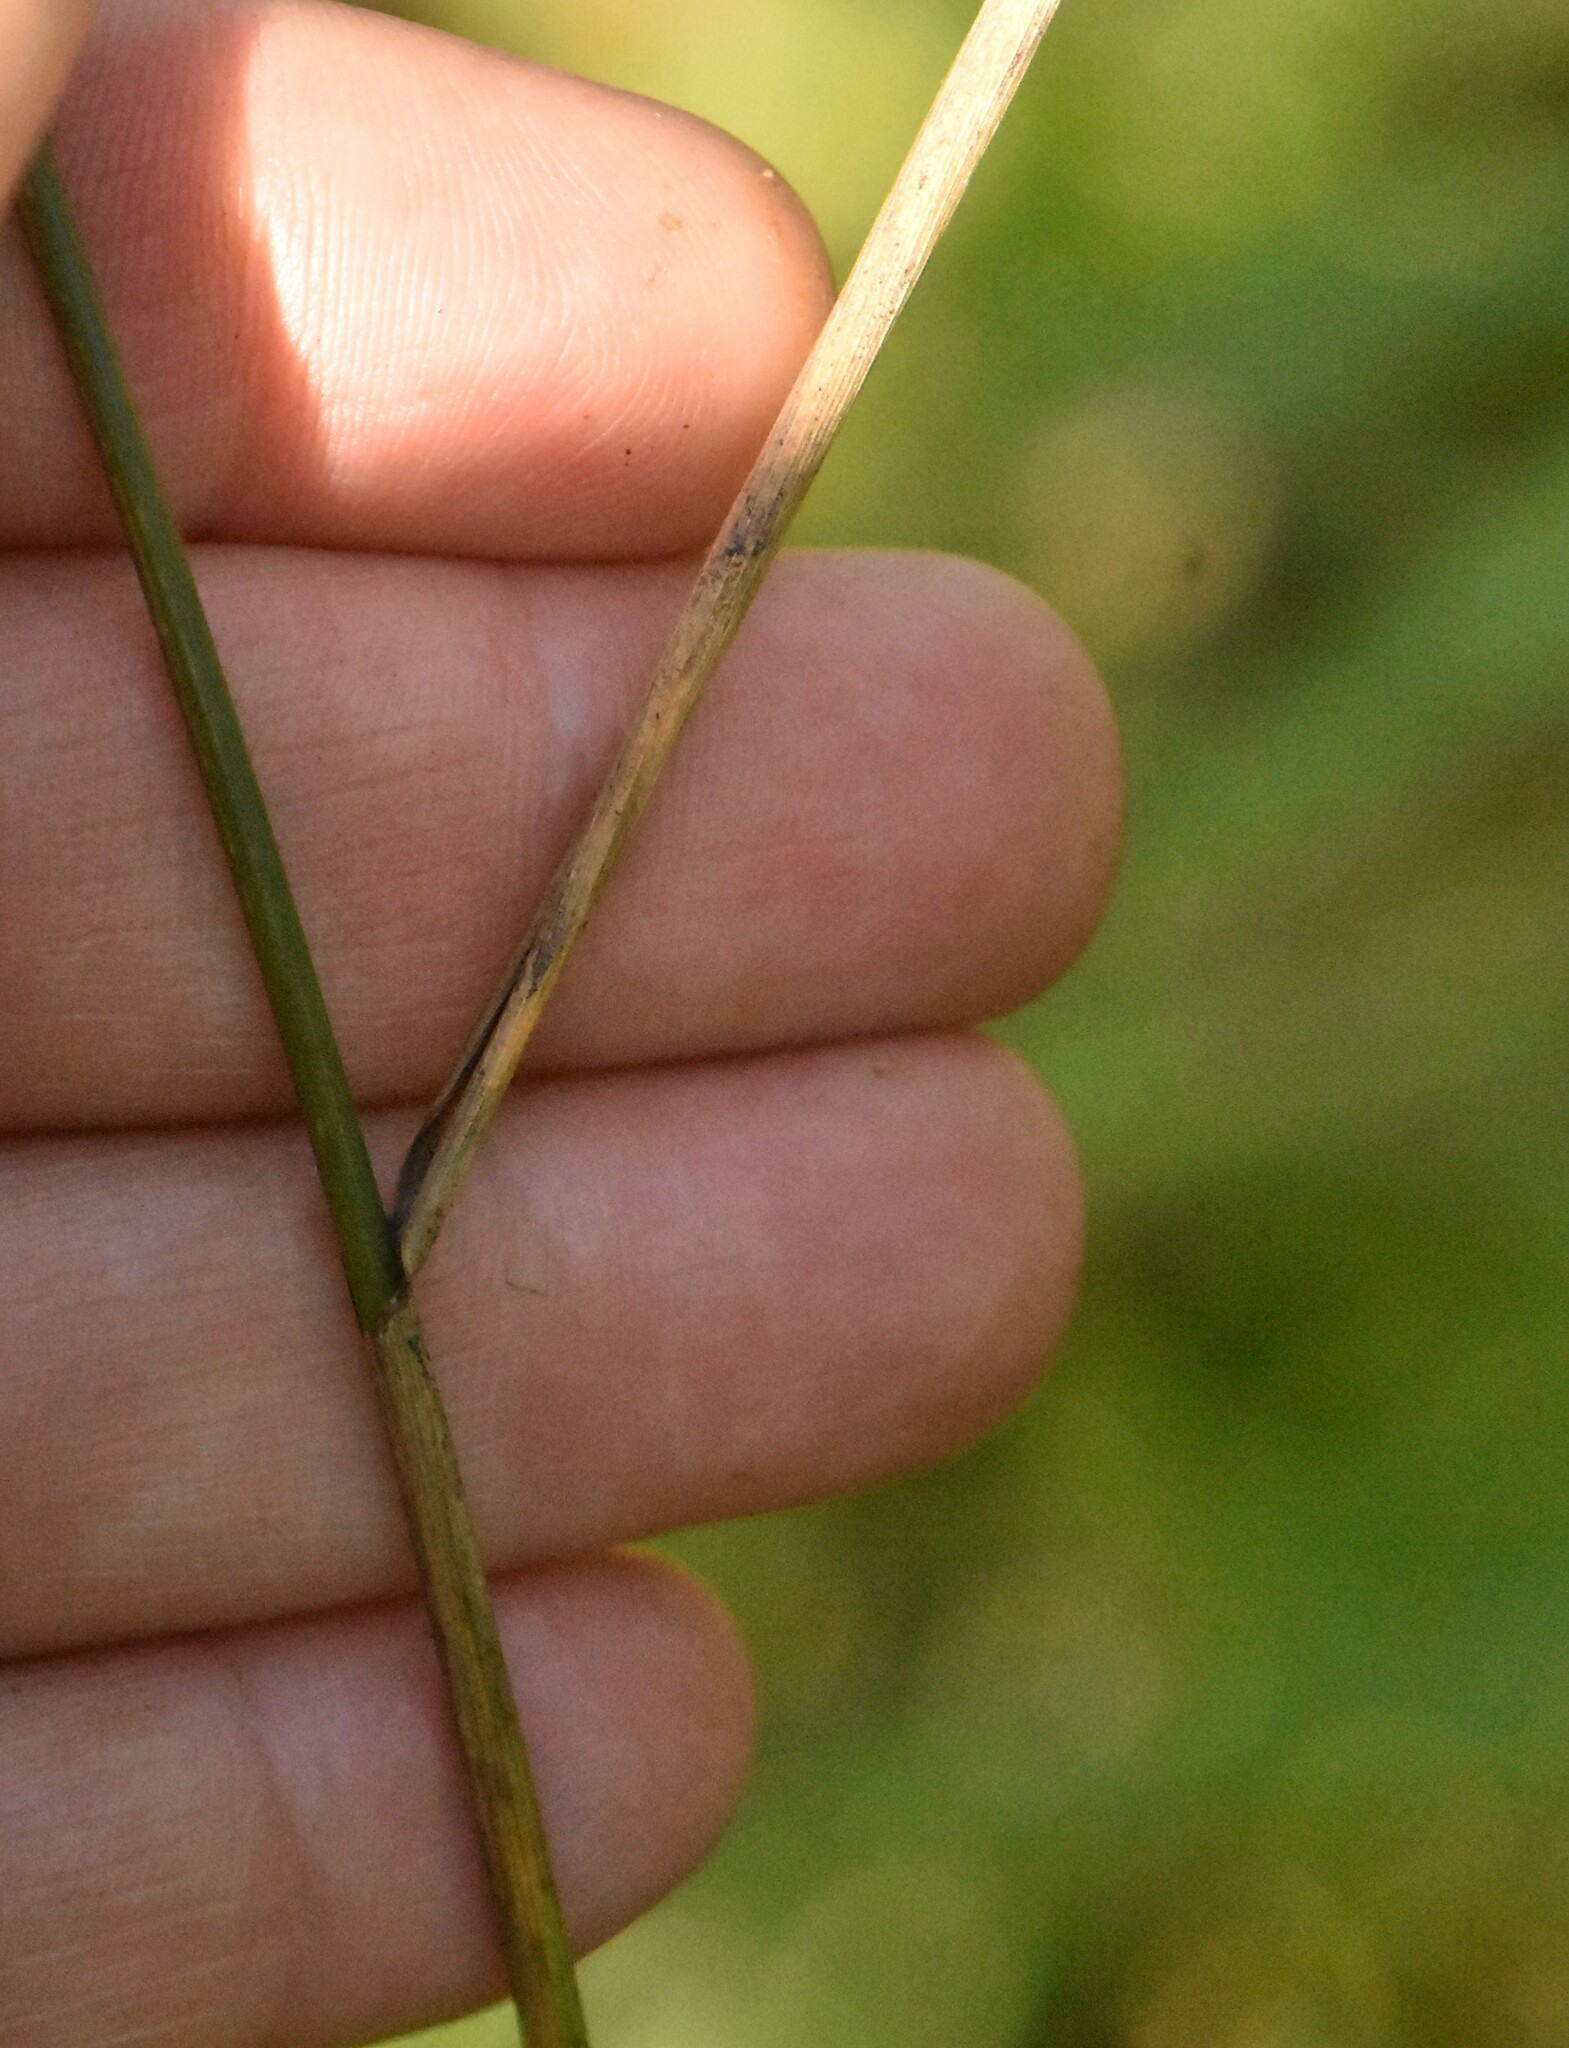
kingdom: Plantae
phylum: Tracheophyta
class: Liliopsida
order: Poales
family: Poaceae
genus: Elymus
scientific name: Elymus repens
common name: Quackgrass
